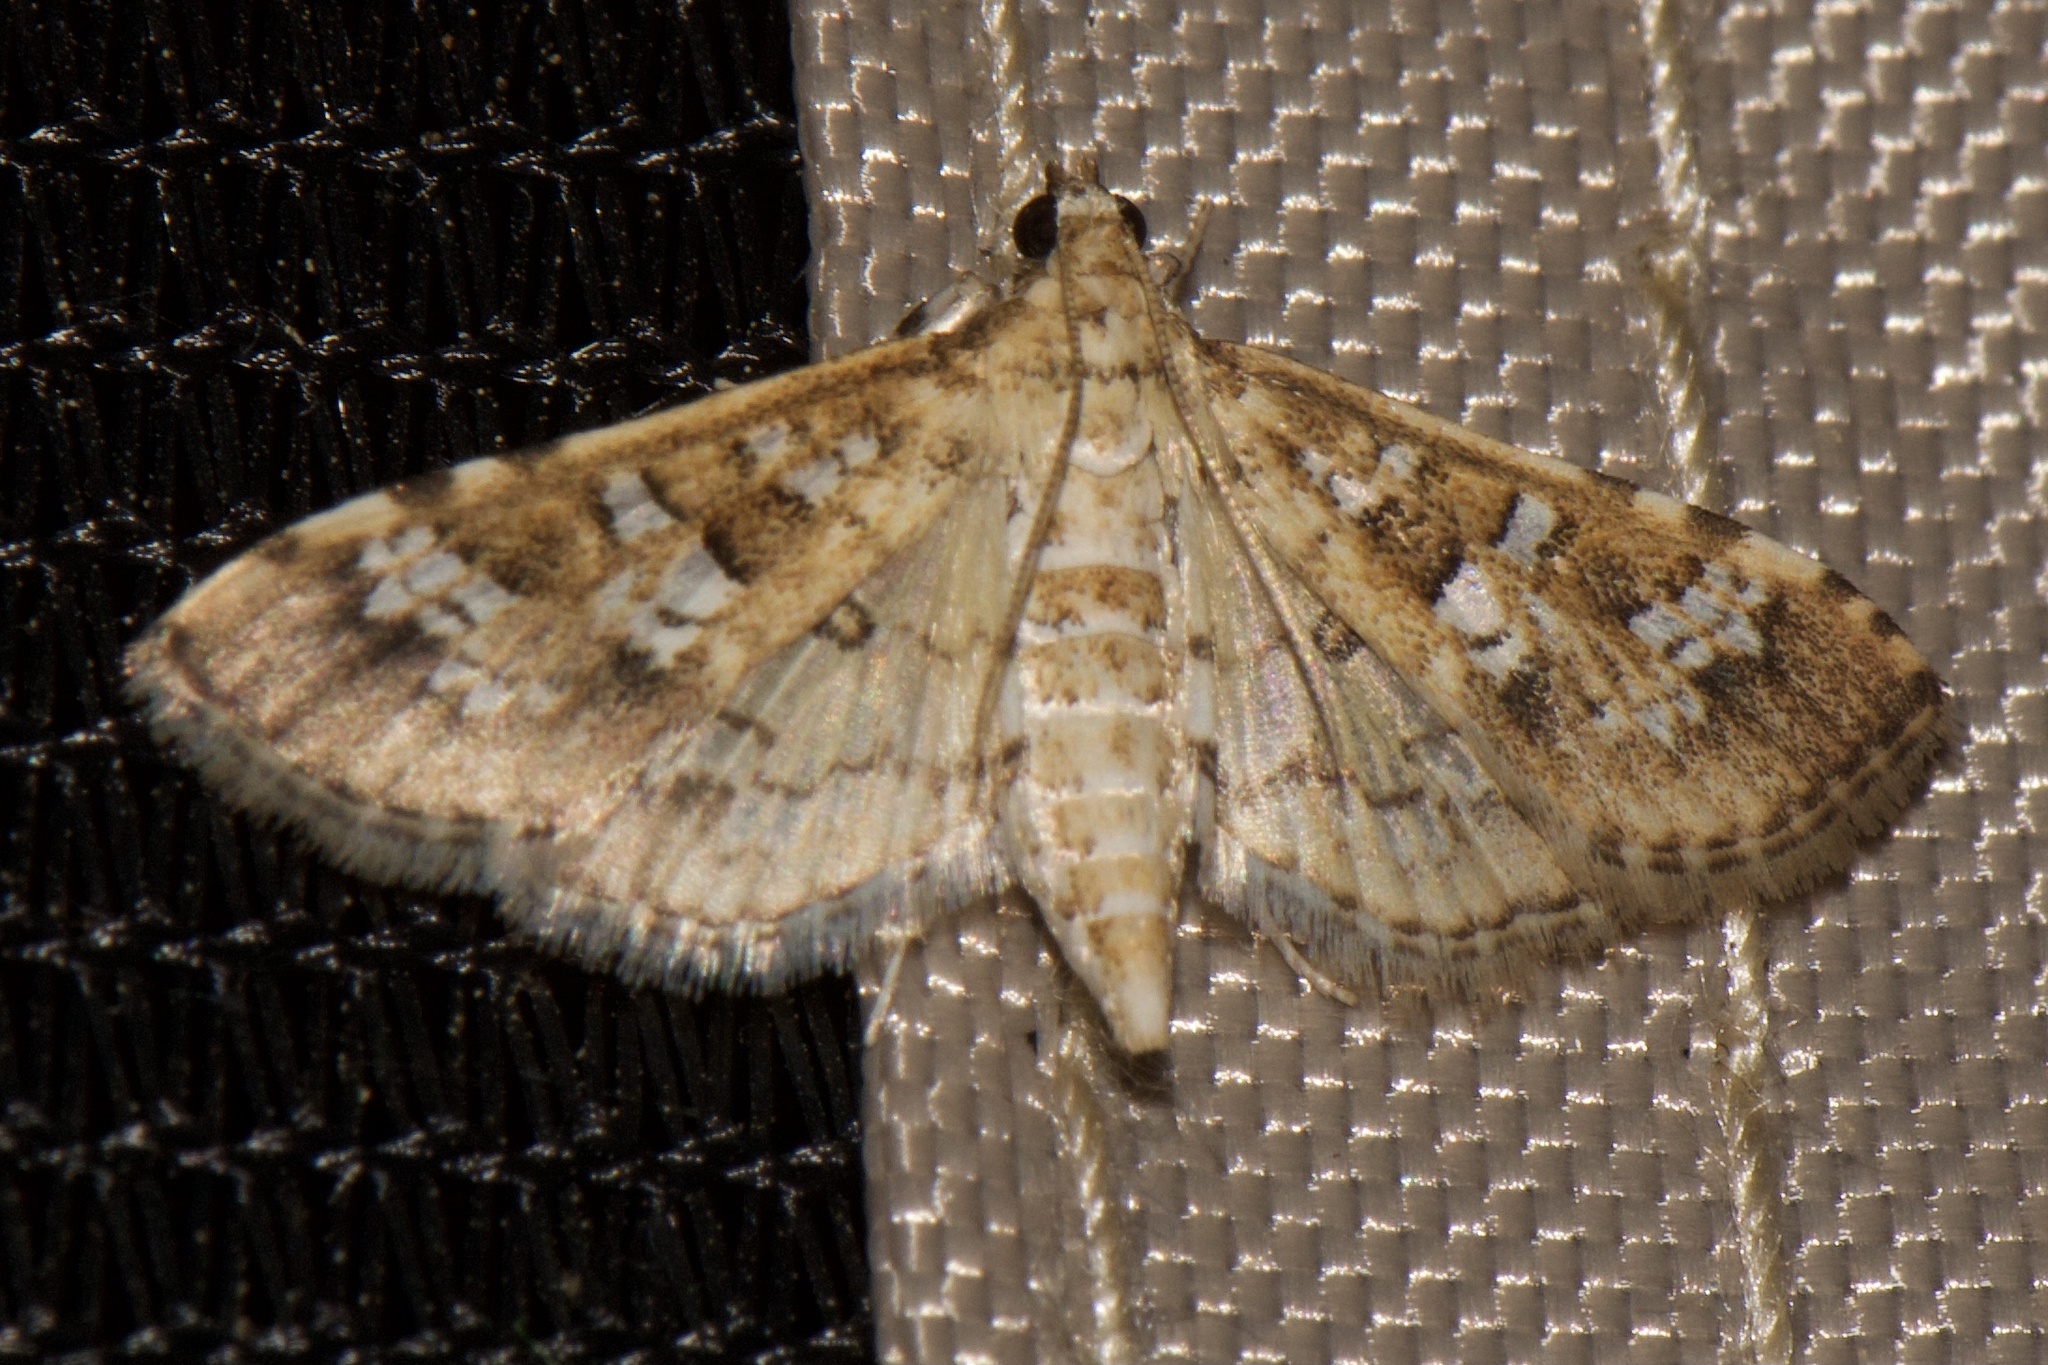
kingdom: Animalia
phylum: Arthropoda
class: Insecta
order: Lepidoptera
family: Crambidae
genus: Samea
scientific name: Samea multiplicalis
